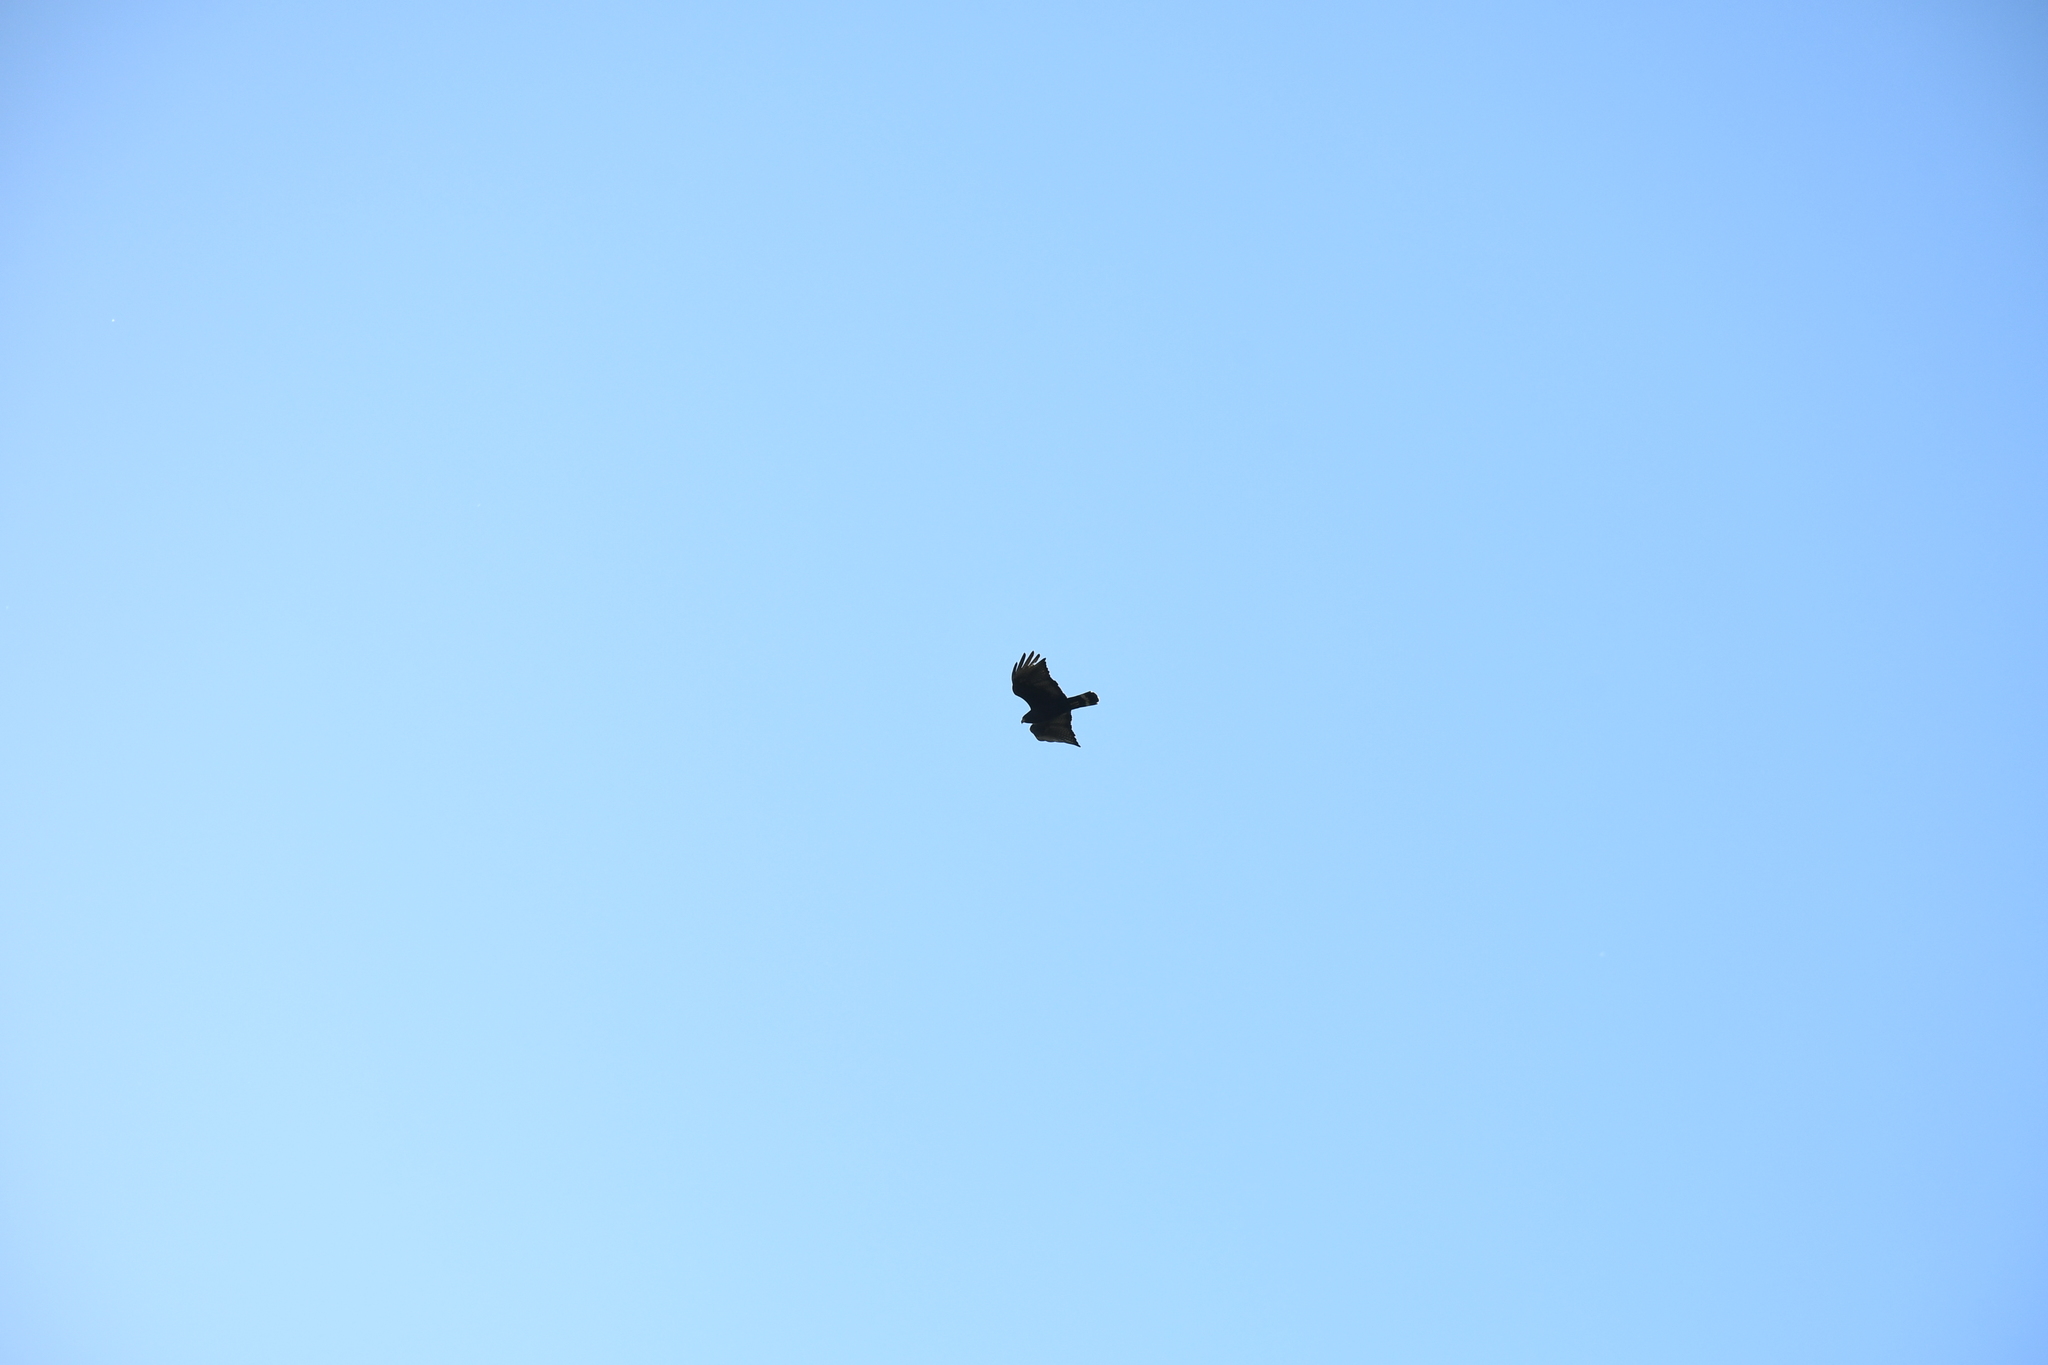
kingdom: Animalia
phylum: Chordata
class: Aves
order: Accipitriformes
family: Accipitridae
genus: Buteo
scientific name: Buteo albonotatus
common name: Zone-tailed hawk
